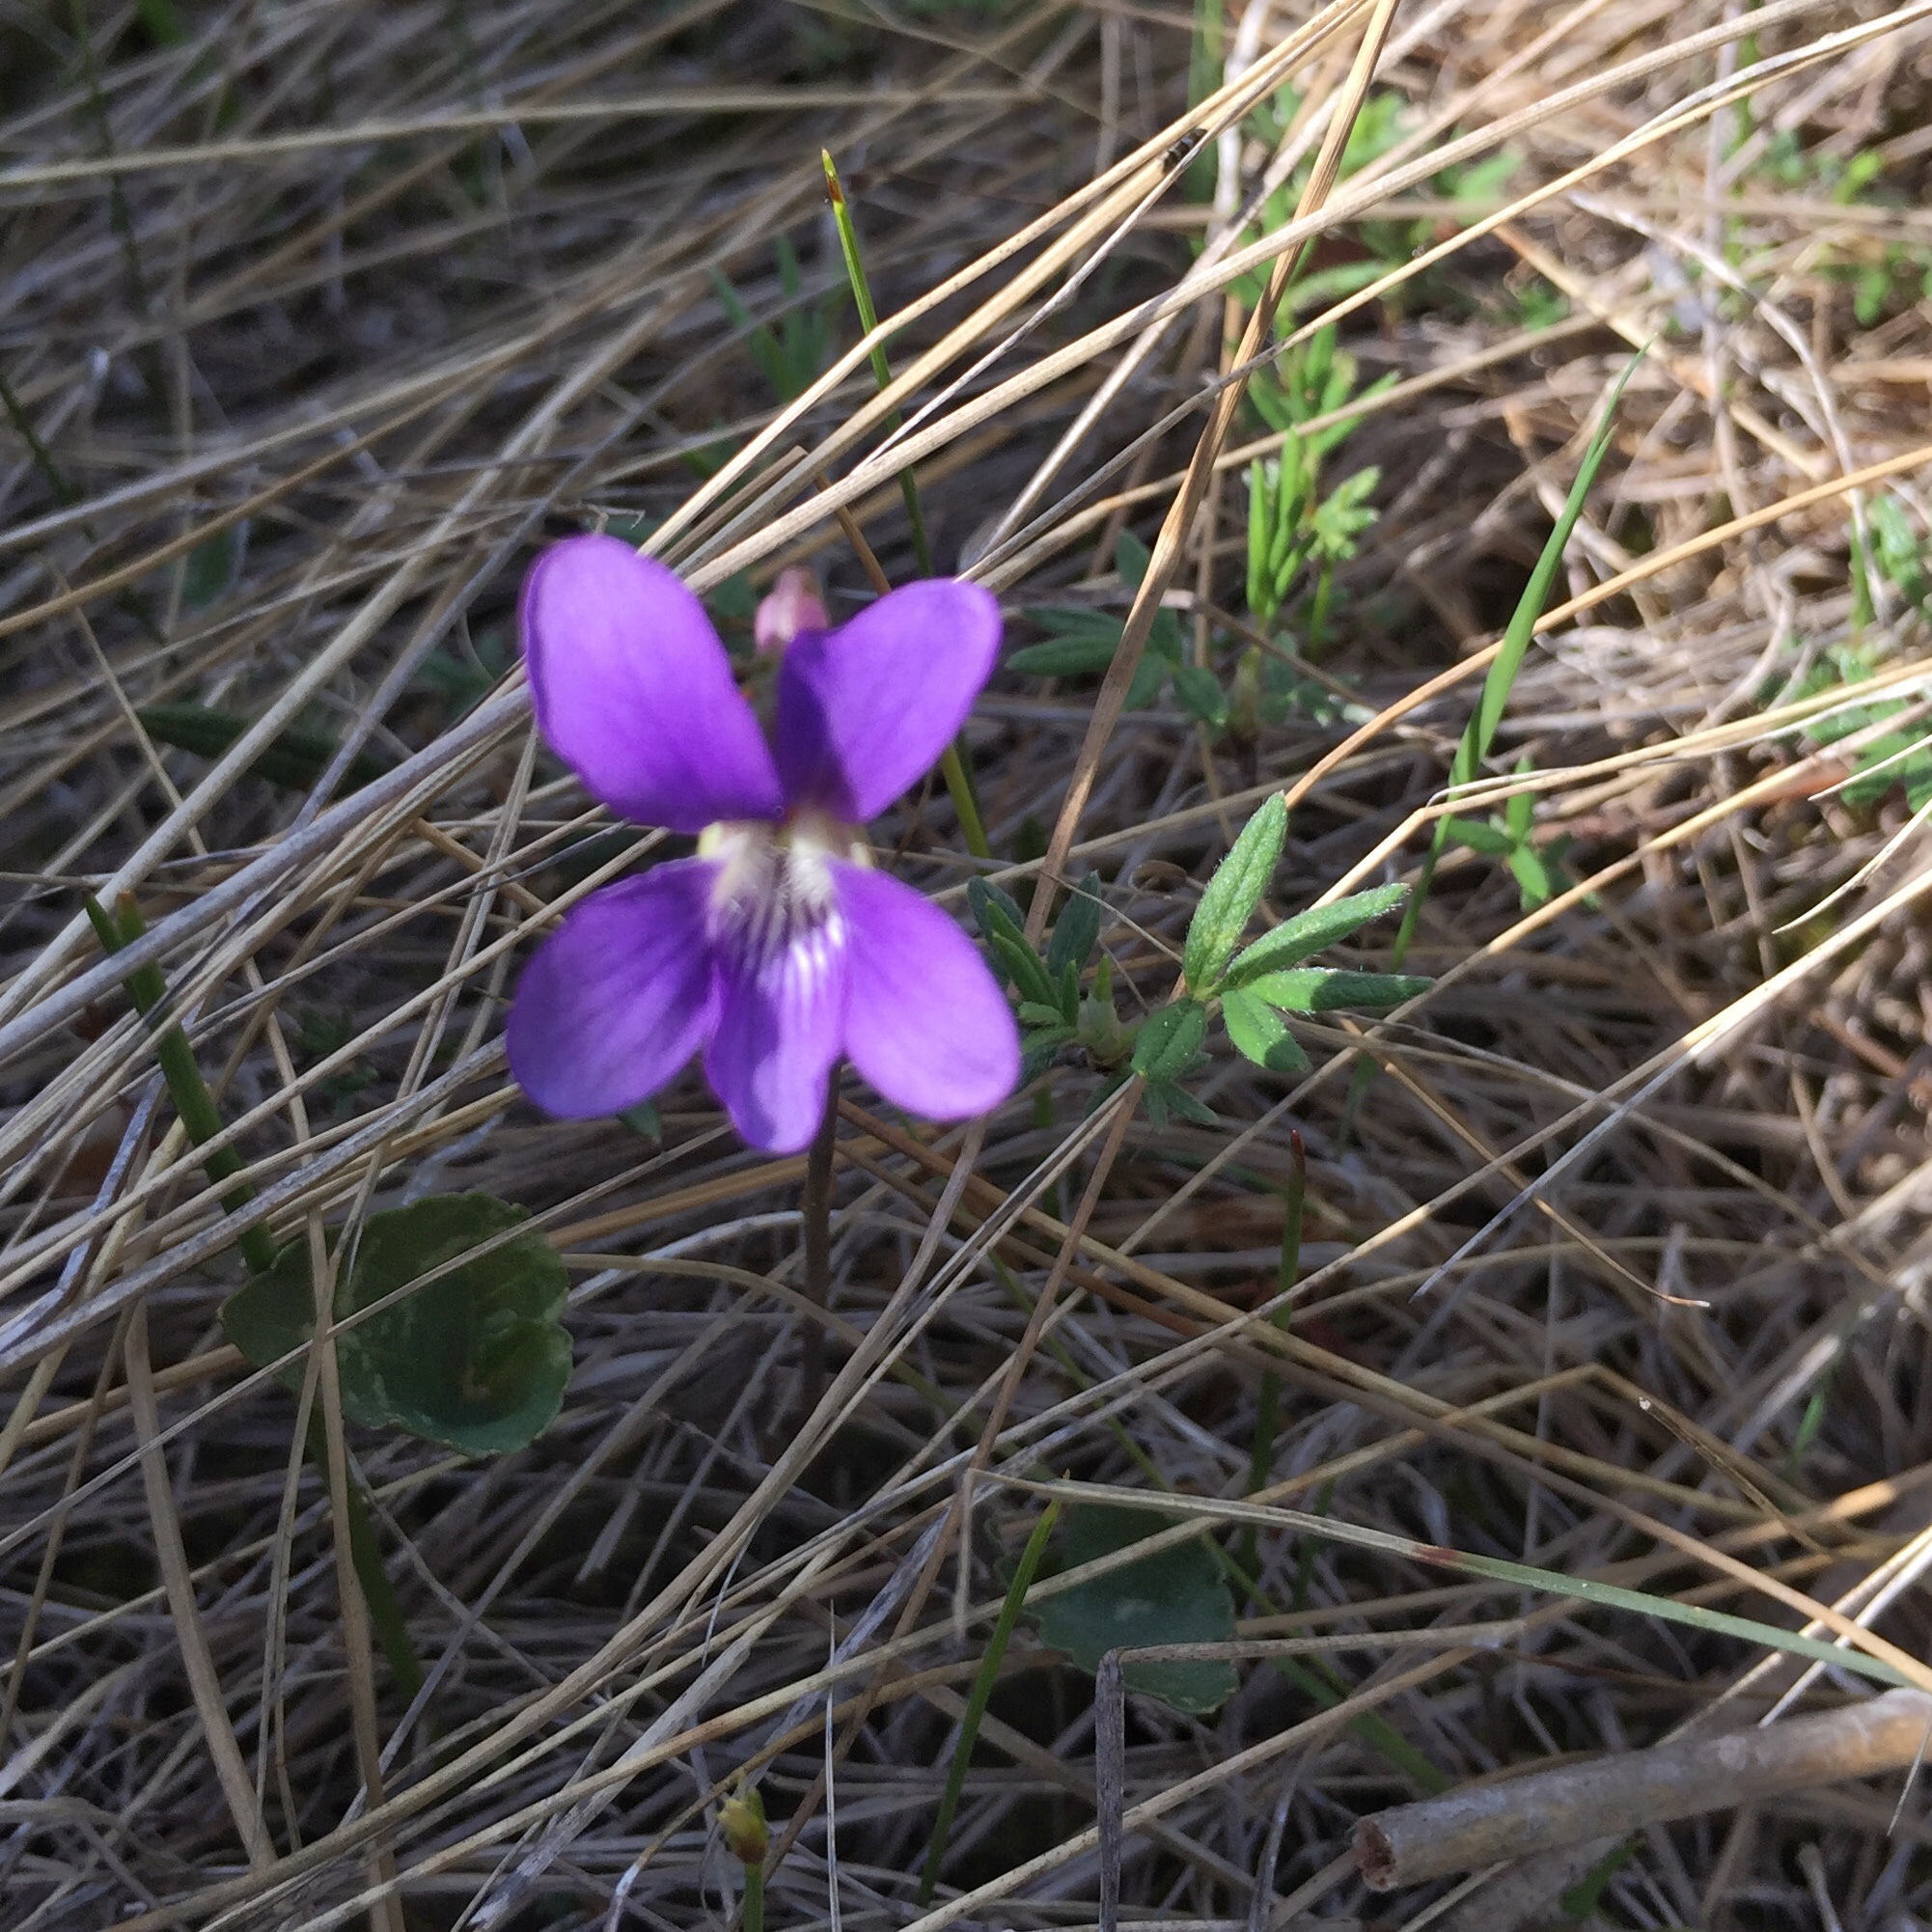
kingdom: Plantae
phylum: Tracheophyta
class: Magnoliopsida
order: Malpighiales
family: Violaceae
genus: Viola
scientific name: Viola nephrophylla
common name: Blue meadow violet
